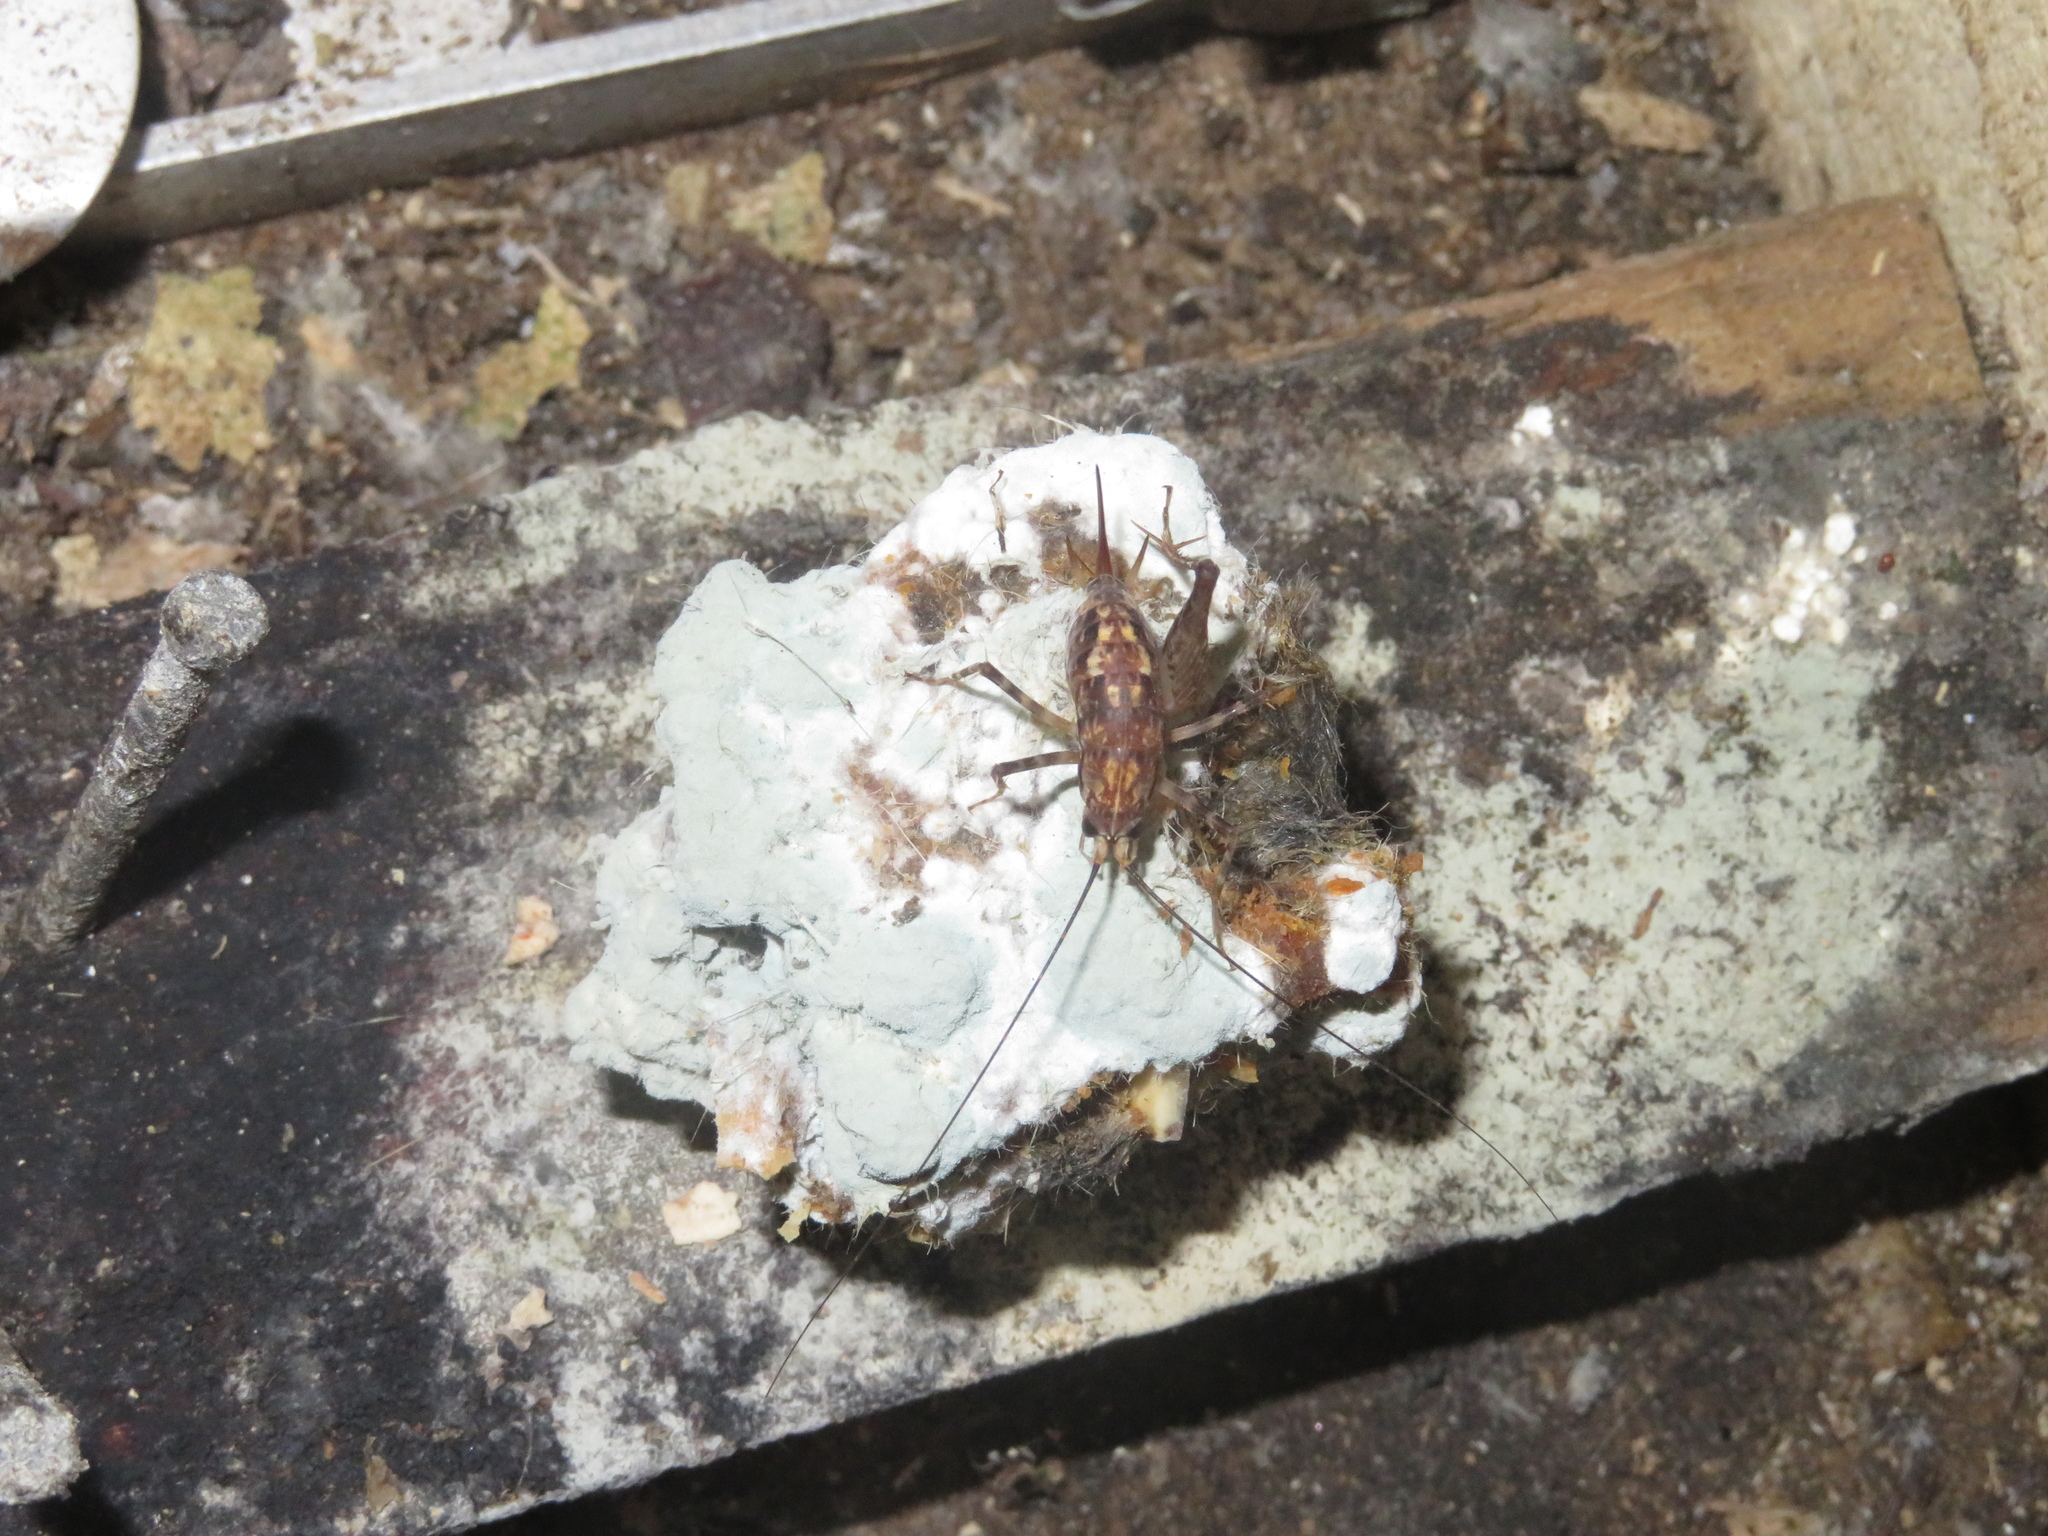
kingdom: Animalia
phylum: Arthropoda
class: Insecta
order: Orthoptera
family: Rhaphidophoridae
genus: Pleioplectron
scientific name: Pleioplectron hudsoni
